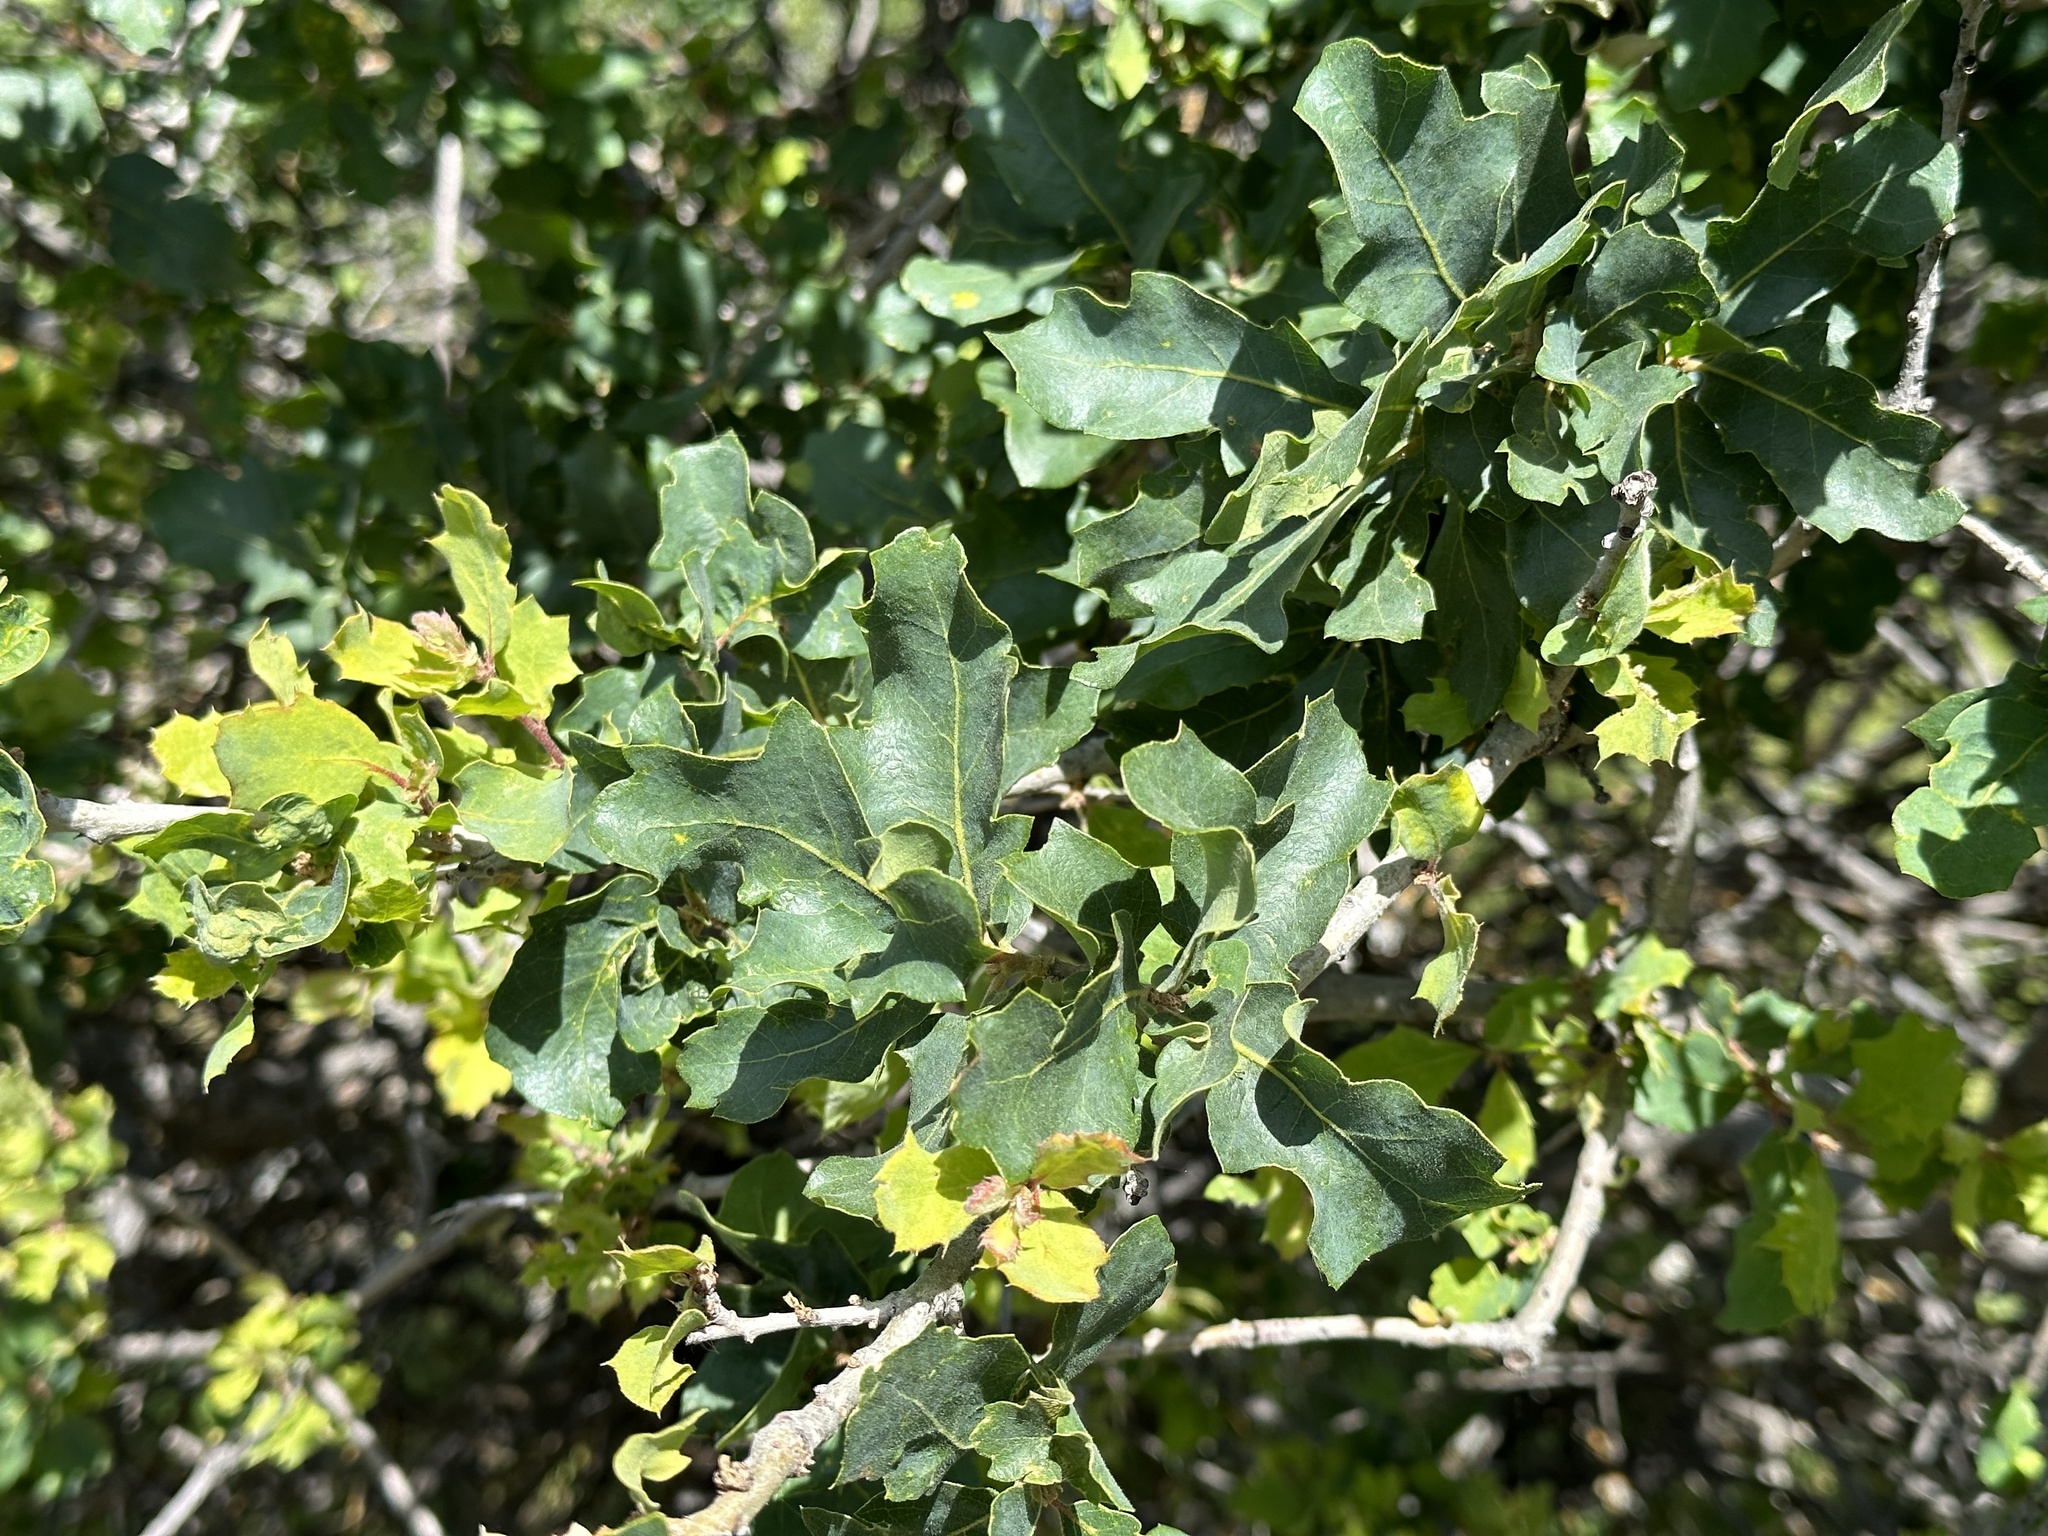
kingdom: Plantae
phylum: Tracheophyta
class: Magnoliopsida
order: Fagales
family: Fagaceae
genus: Quercus
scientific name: Quercus wislizeni
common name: Interior live oak
